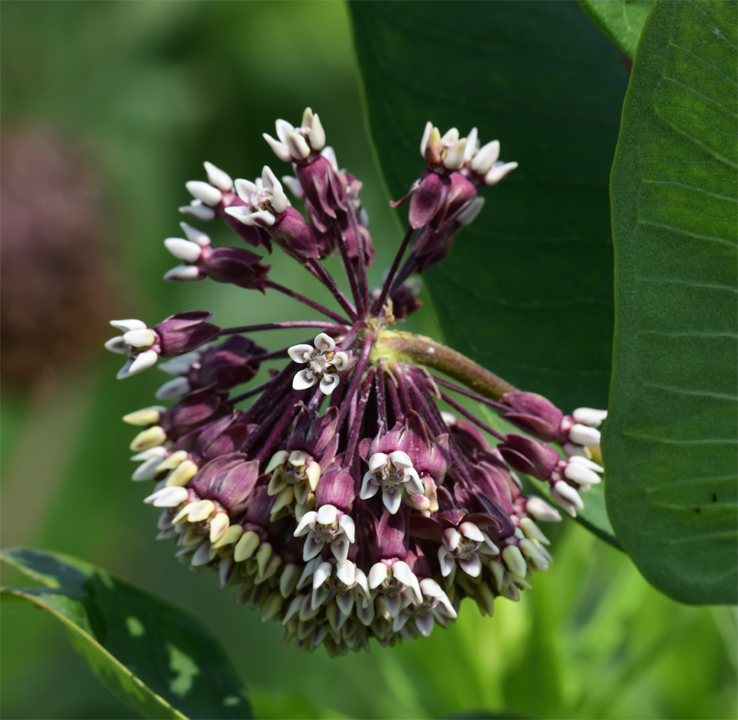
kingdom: Plantae
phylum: Tracheophyta
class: Magnoliopsida
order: Gentianales
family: Apocynaceae
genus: Asclepias
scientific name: Asclepias syriaca
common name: Common milkweed
